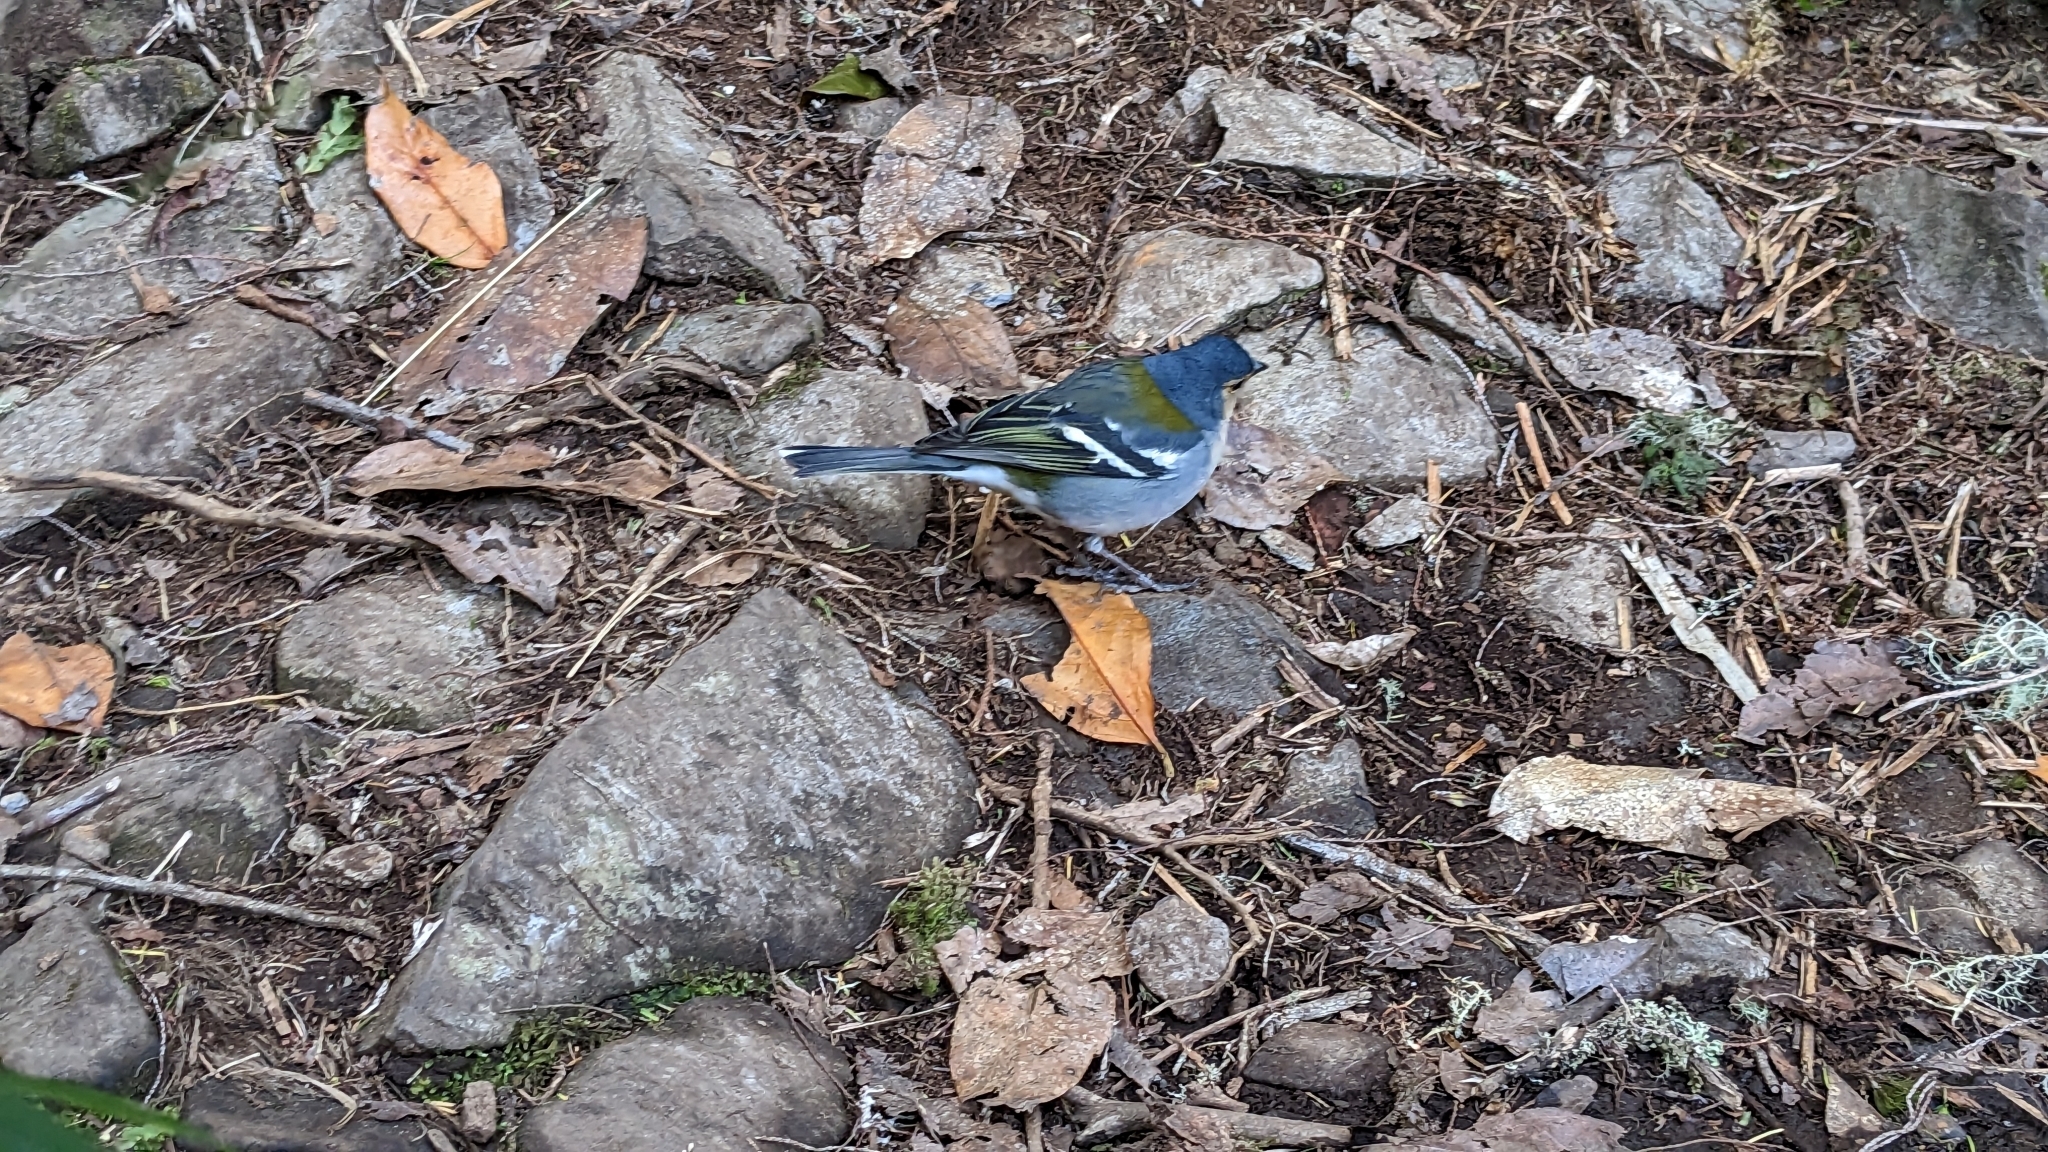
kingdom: Animalia
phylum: Chordata
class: Aves
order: Passeriformes
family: Fringillidae
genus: Fringilla
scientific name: Fringilla maderensis
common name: Madeira chaffinch
